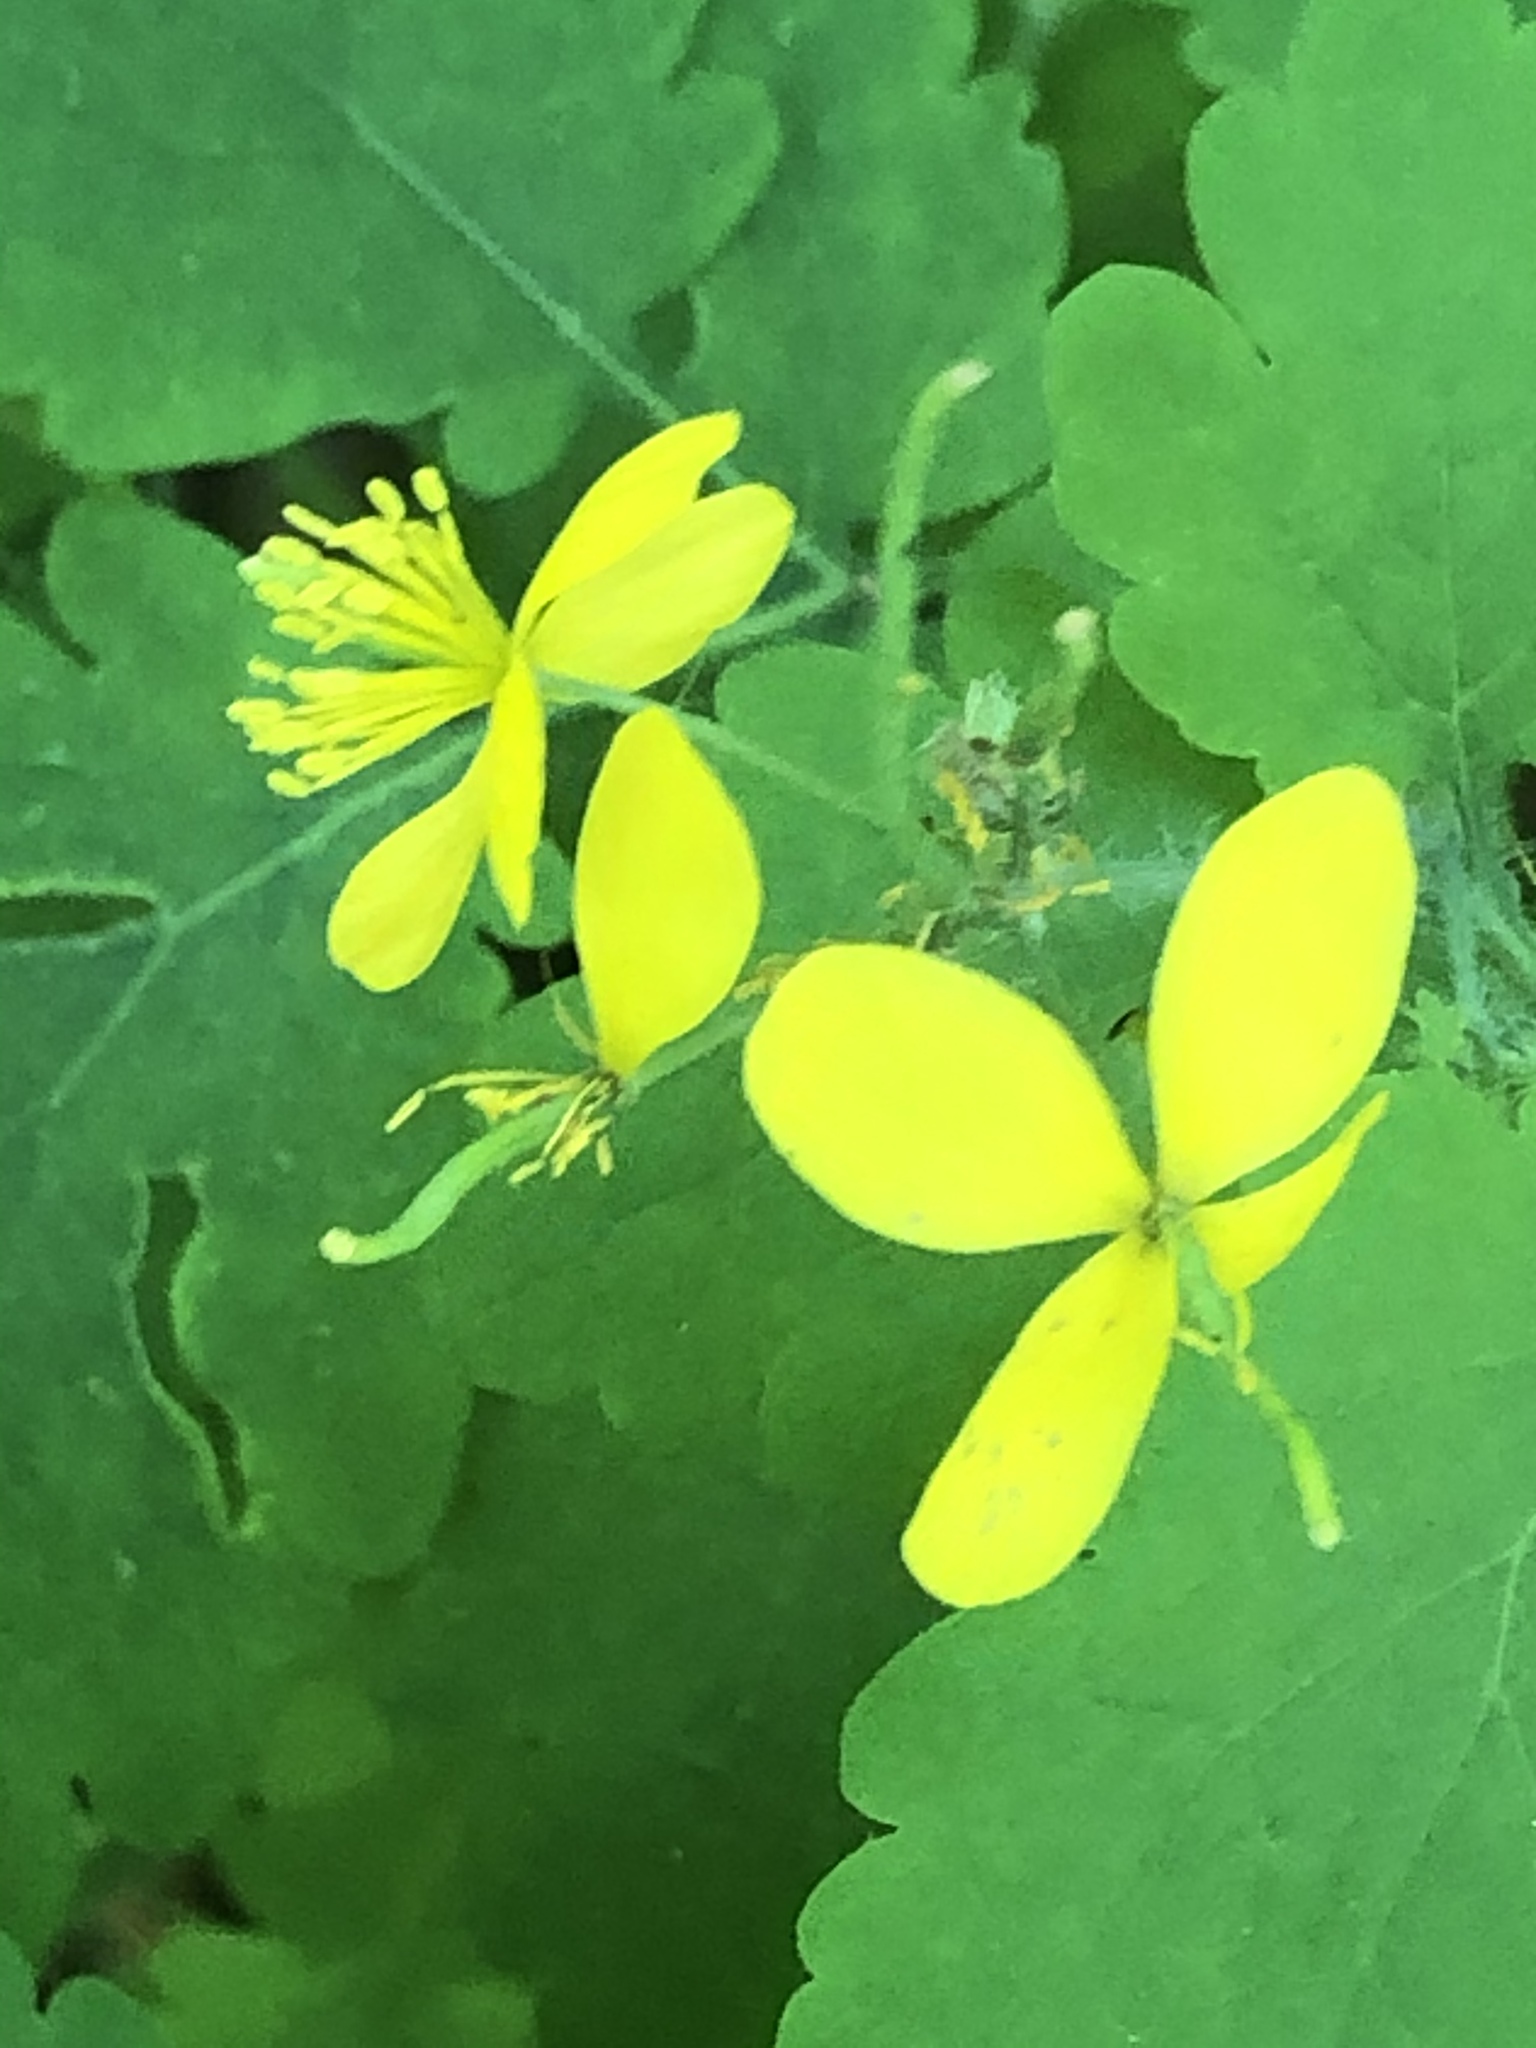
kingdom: Plantae
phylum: Tracheophyta
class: Magnoliopsida
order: Ranunculales
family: Papaveraceae
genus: Chelidonium
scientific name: Chelidonium majus
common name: Greater celandine
